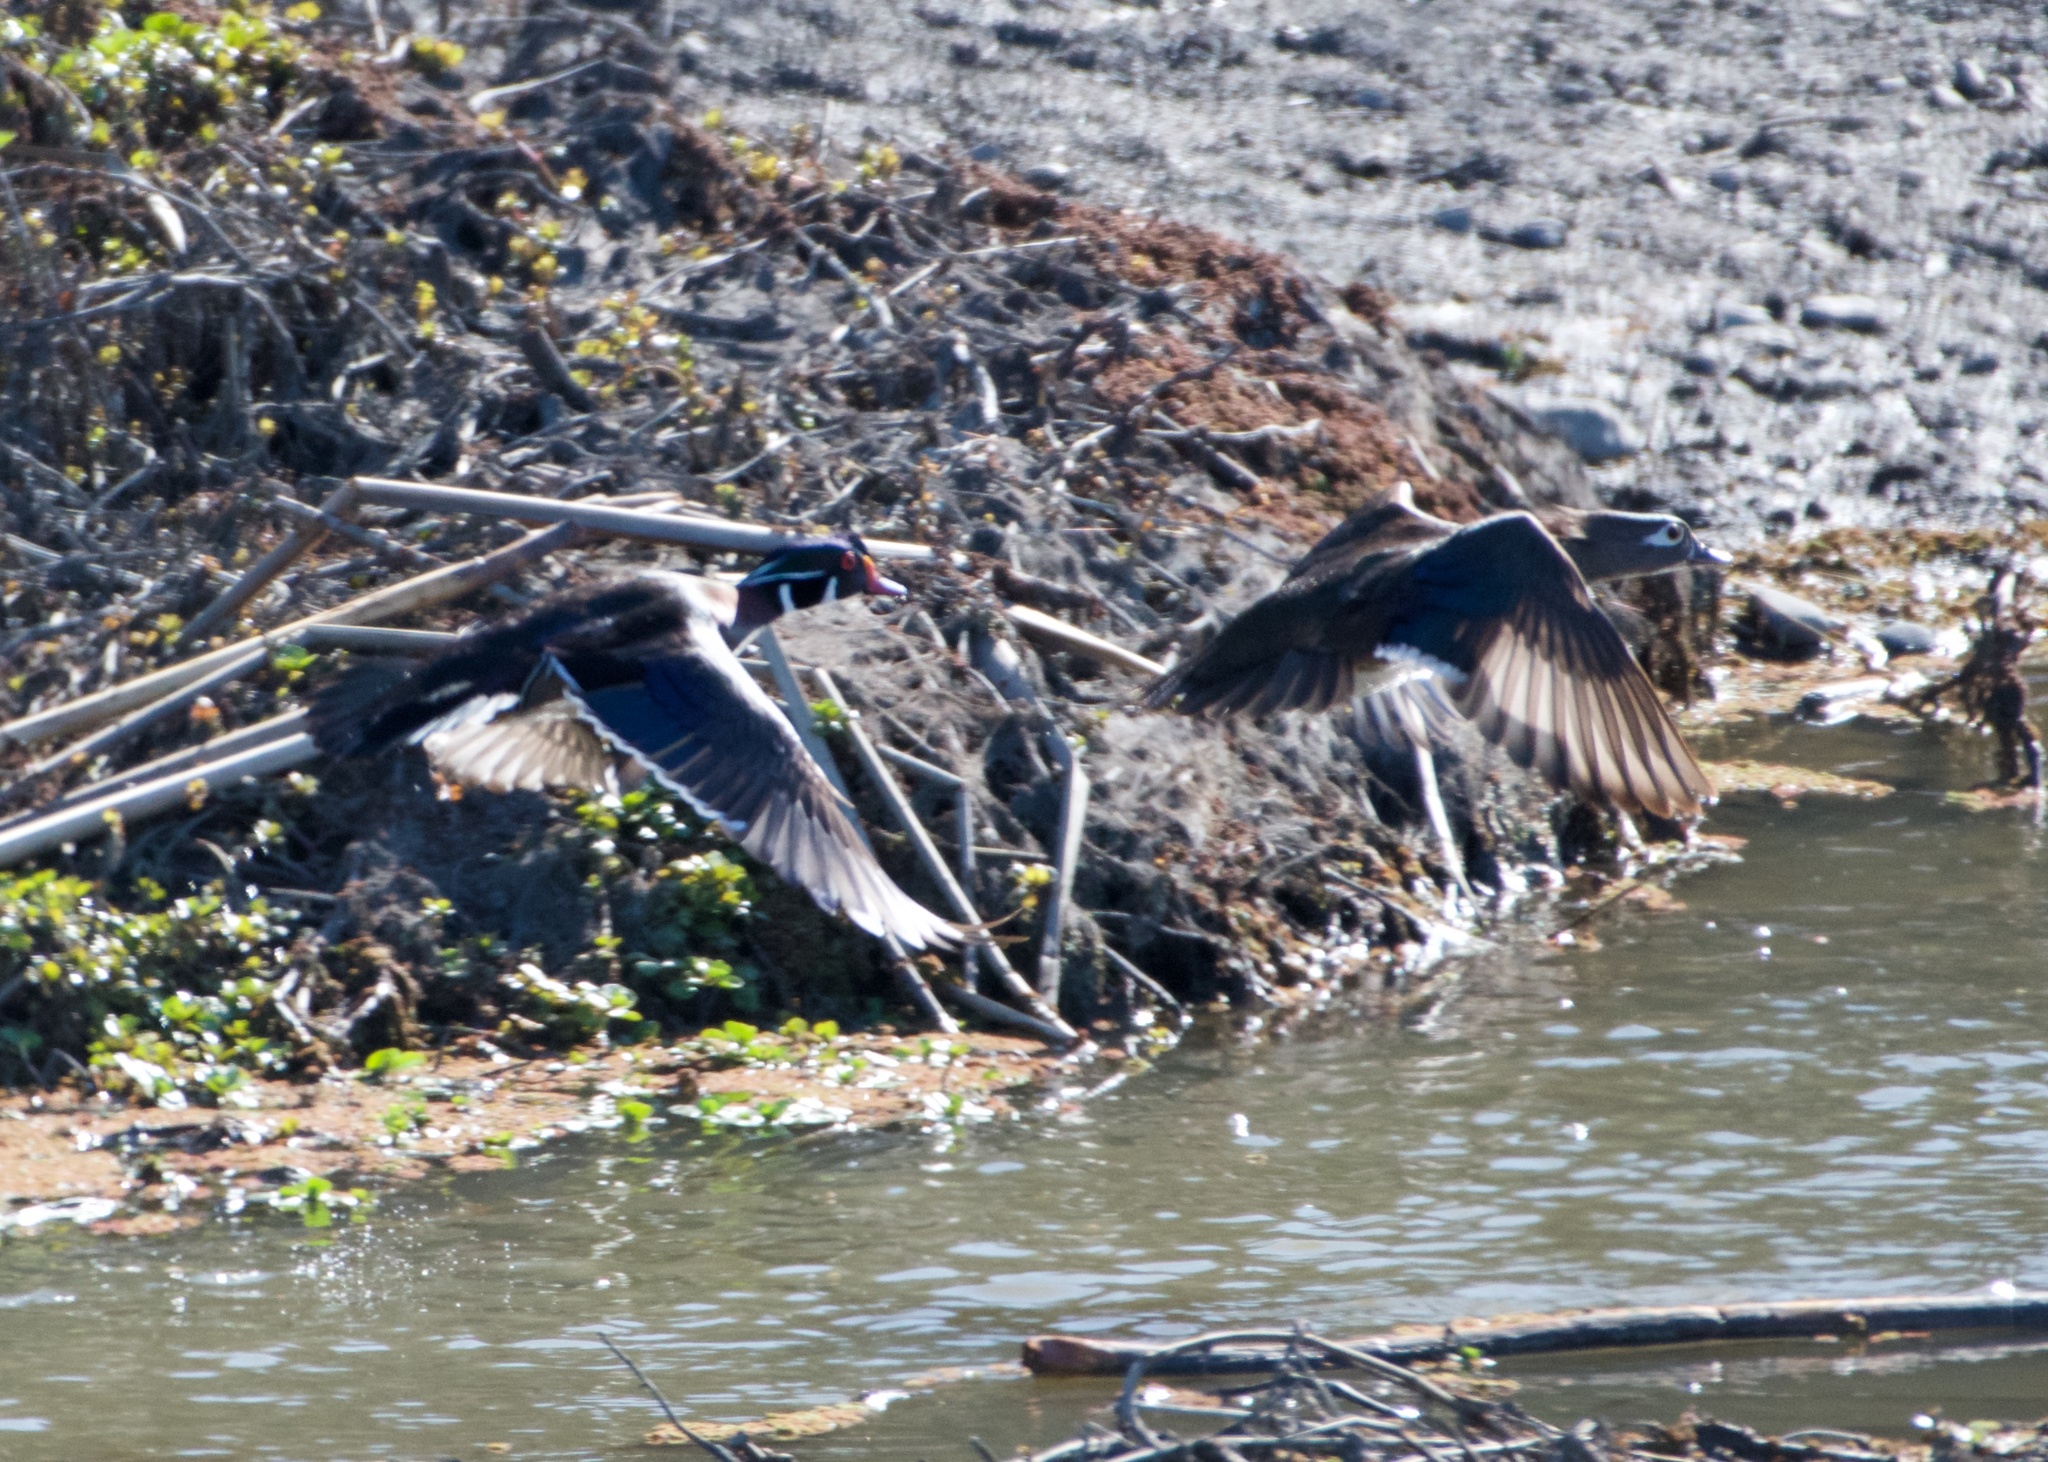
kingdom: Animalia
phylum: Chordata
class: Aves
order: Anseriformes
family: Anatidae
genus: Aix
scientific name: Aix sponsa
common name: Wood duck
